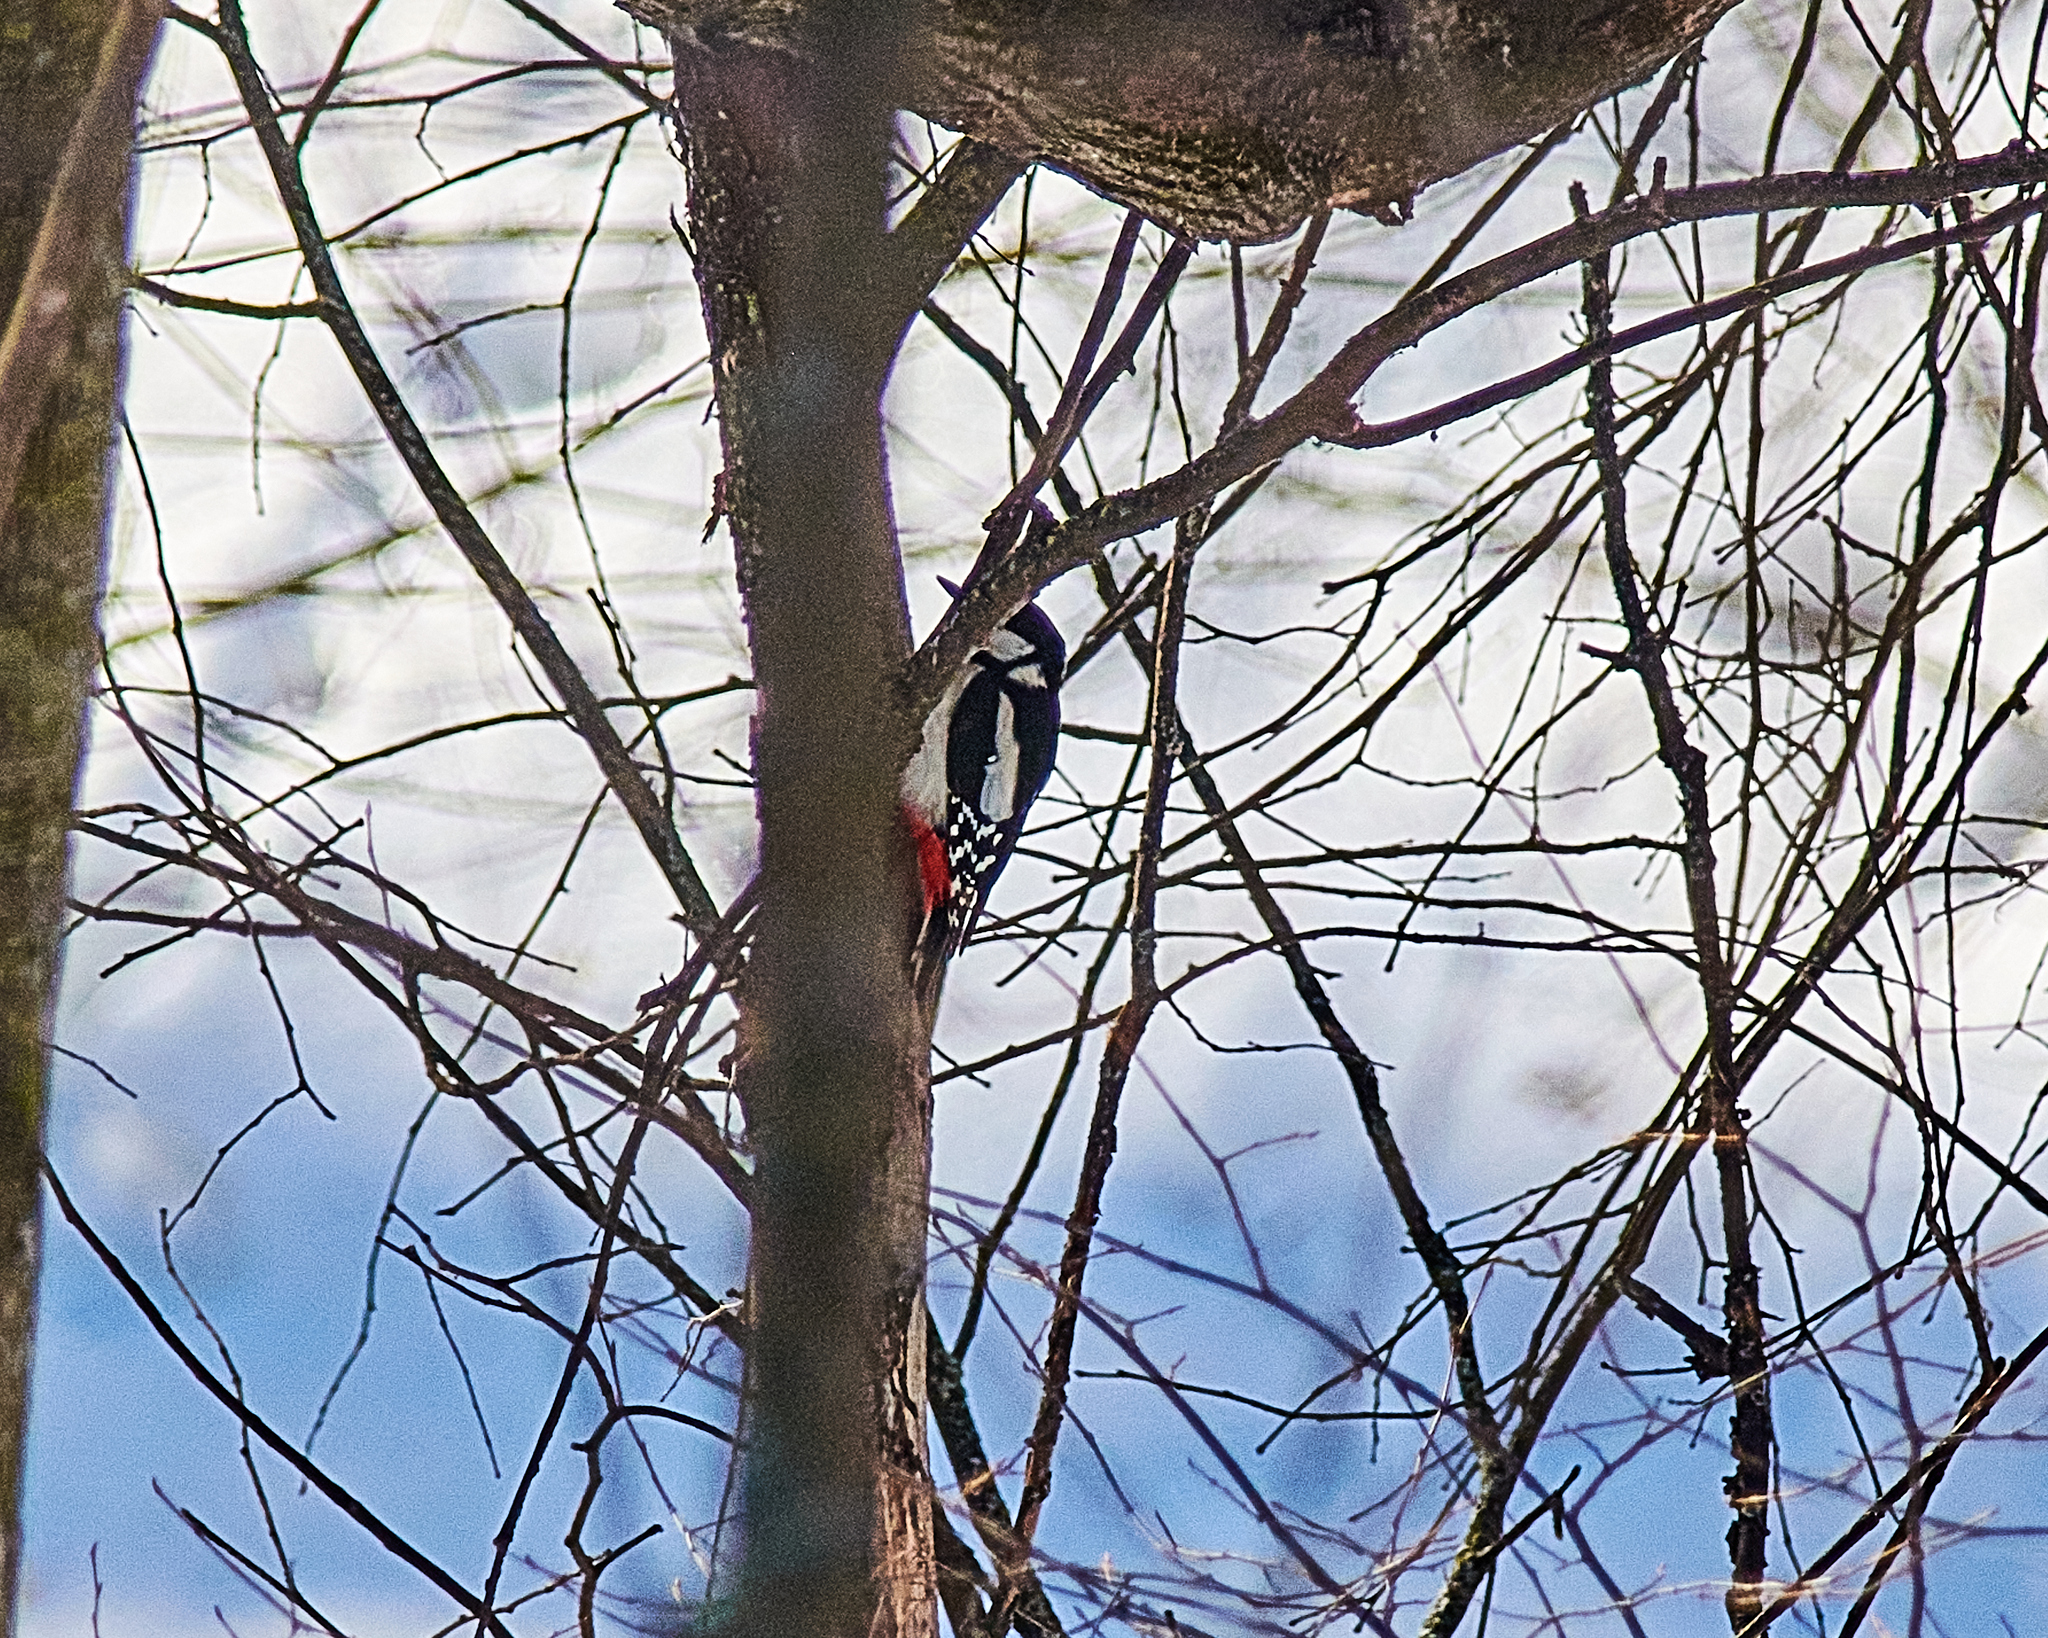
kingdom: Animalia
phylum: Chordata
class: Aves
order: Piciformes
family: Picidae
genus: Dendrocopos
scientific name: Dendrocopos major
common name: Great spotted woodpecker
